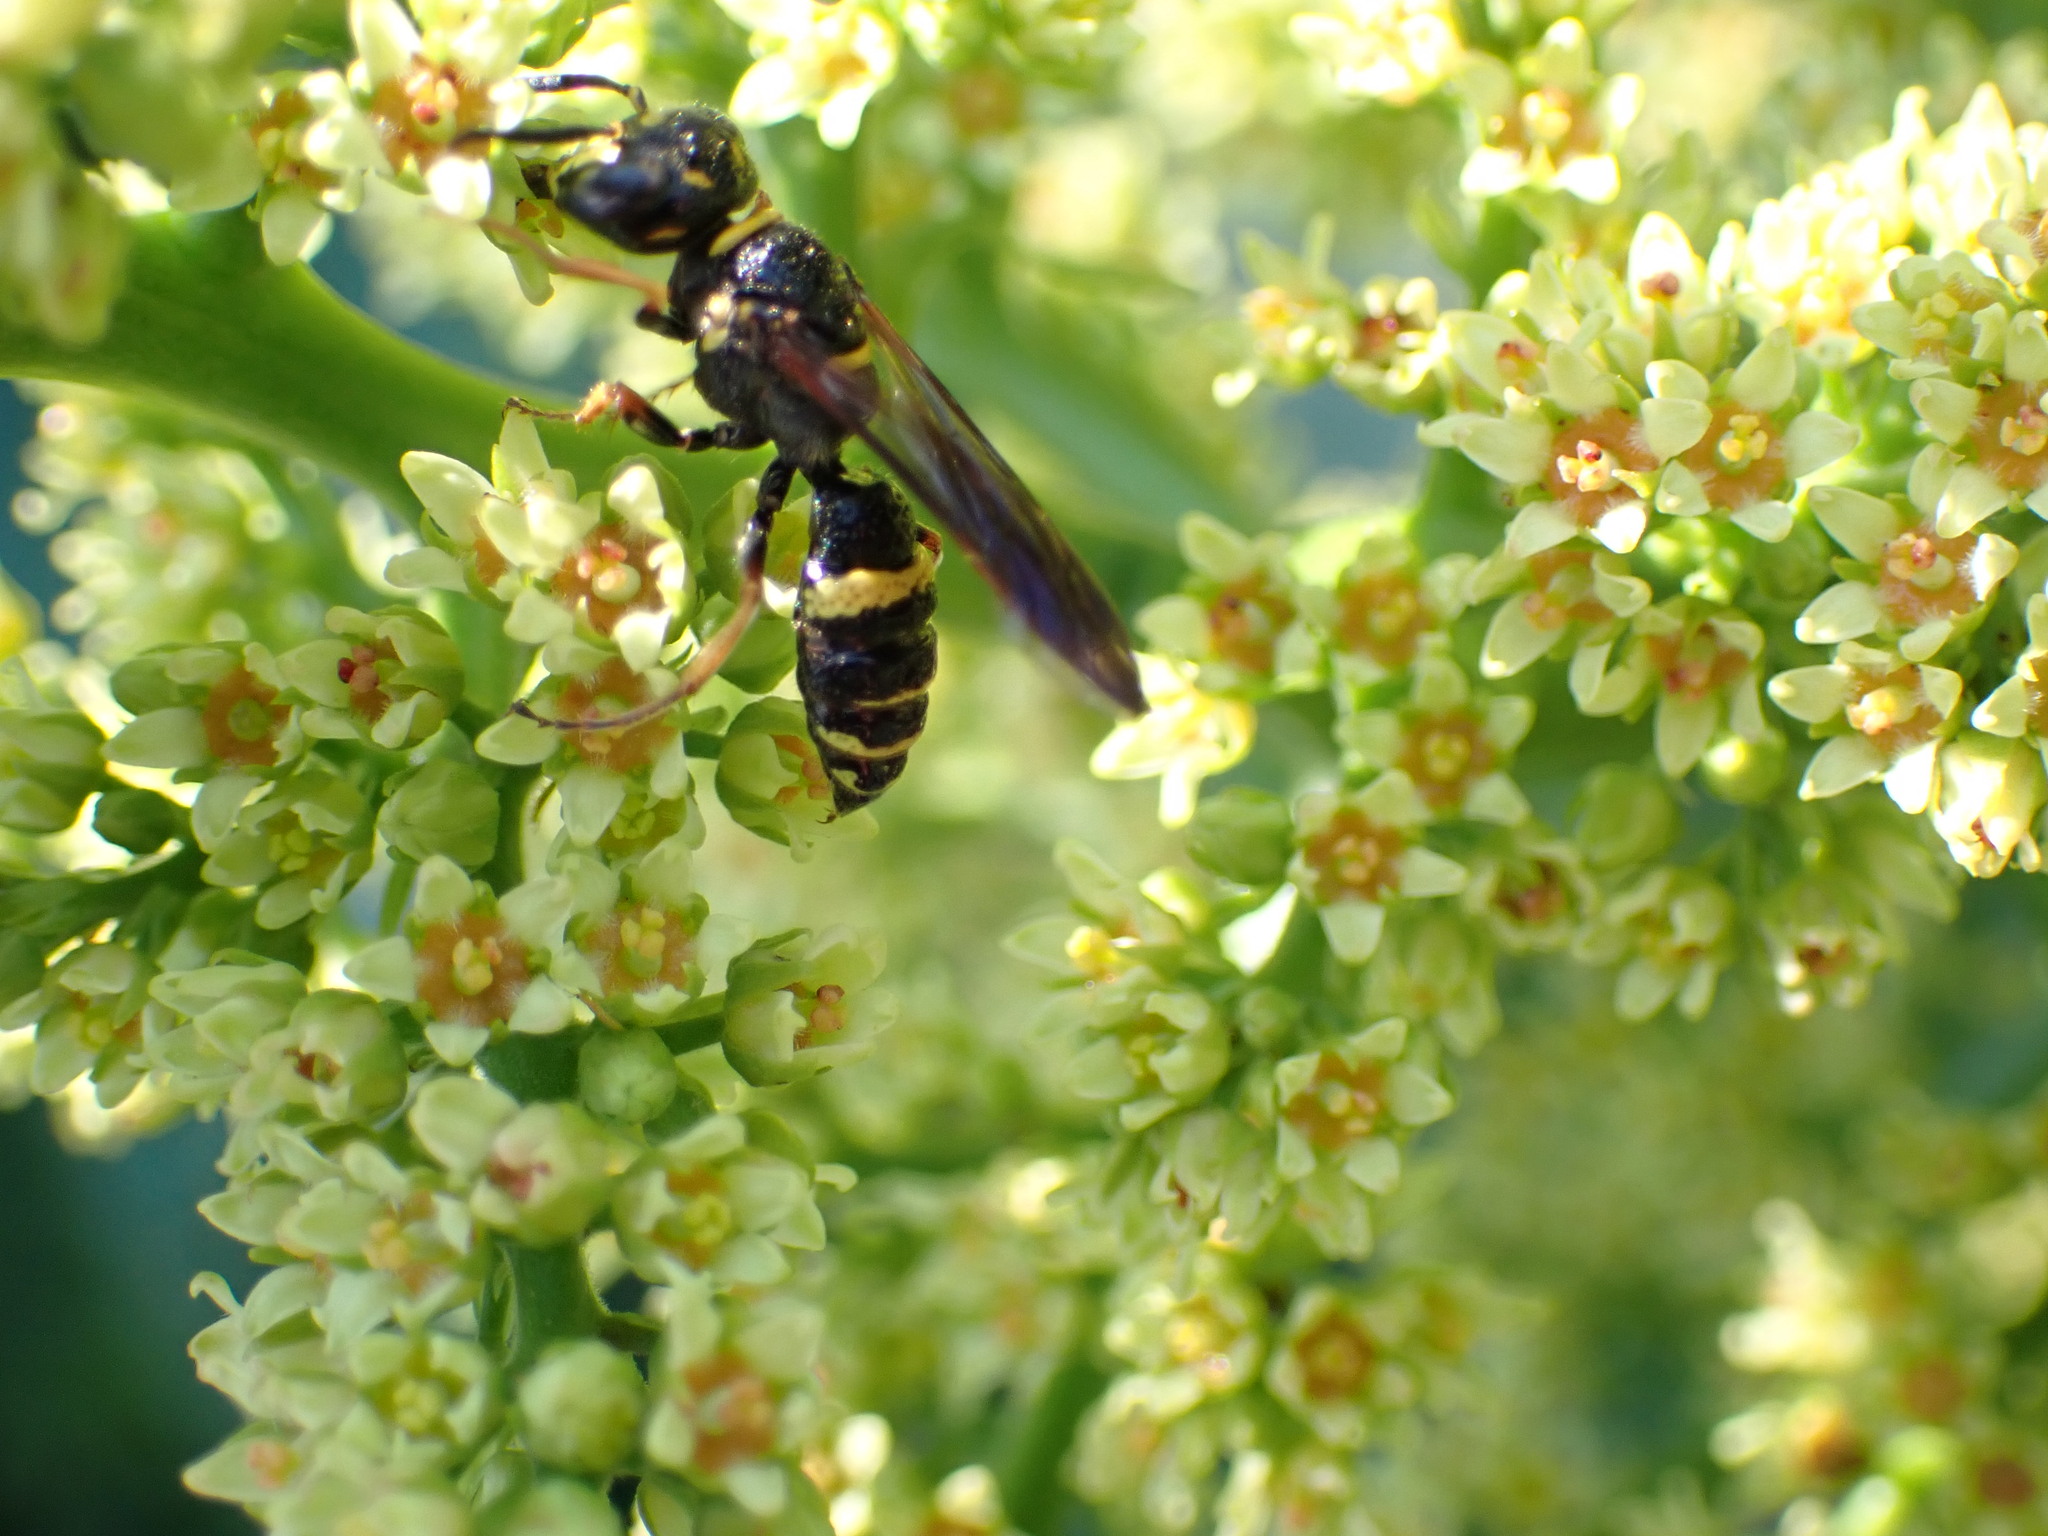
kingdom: Animalia
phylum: Arthropoda
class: Insecta
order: Hymenoptera
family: Crabronidae
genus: Philanthus
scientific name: Philanthus gibbosus
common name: Humped beewolf
